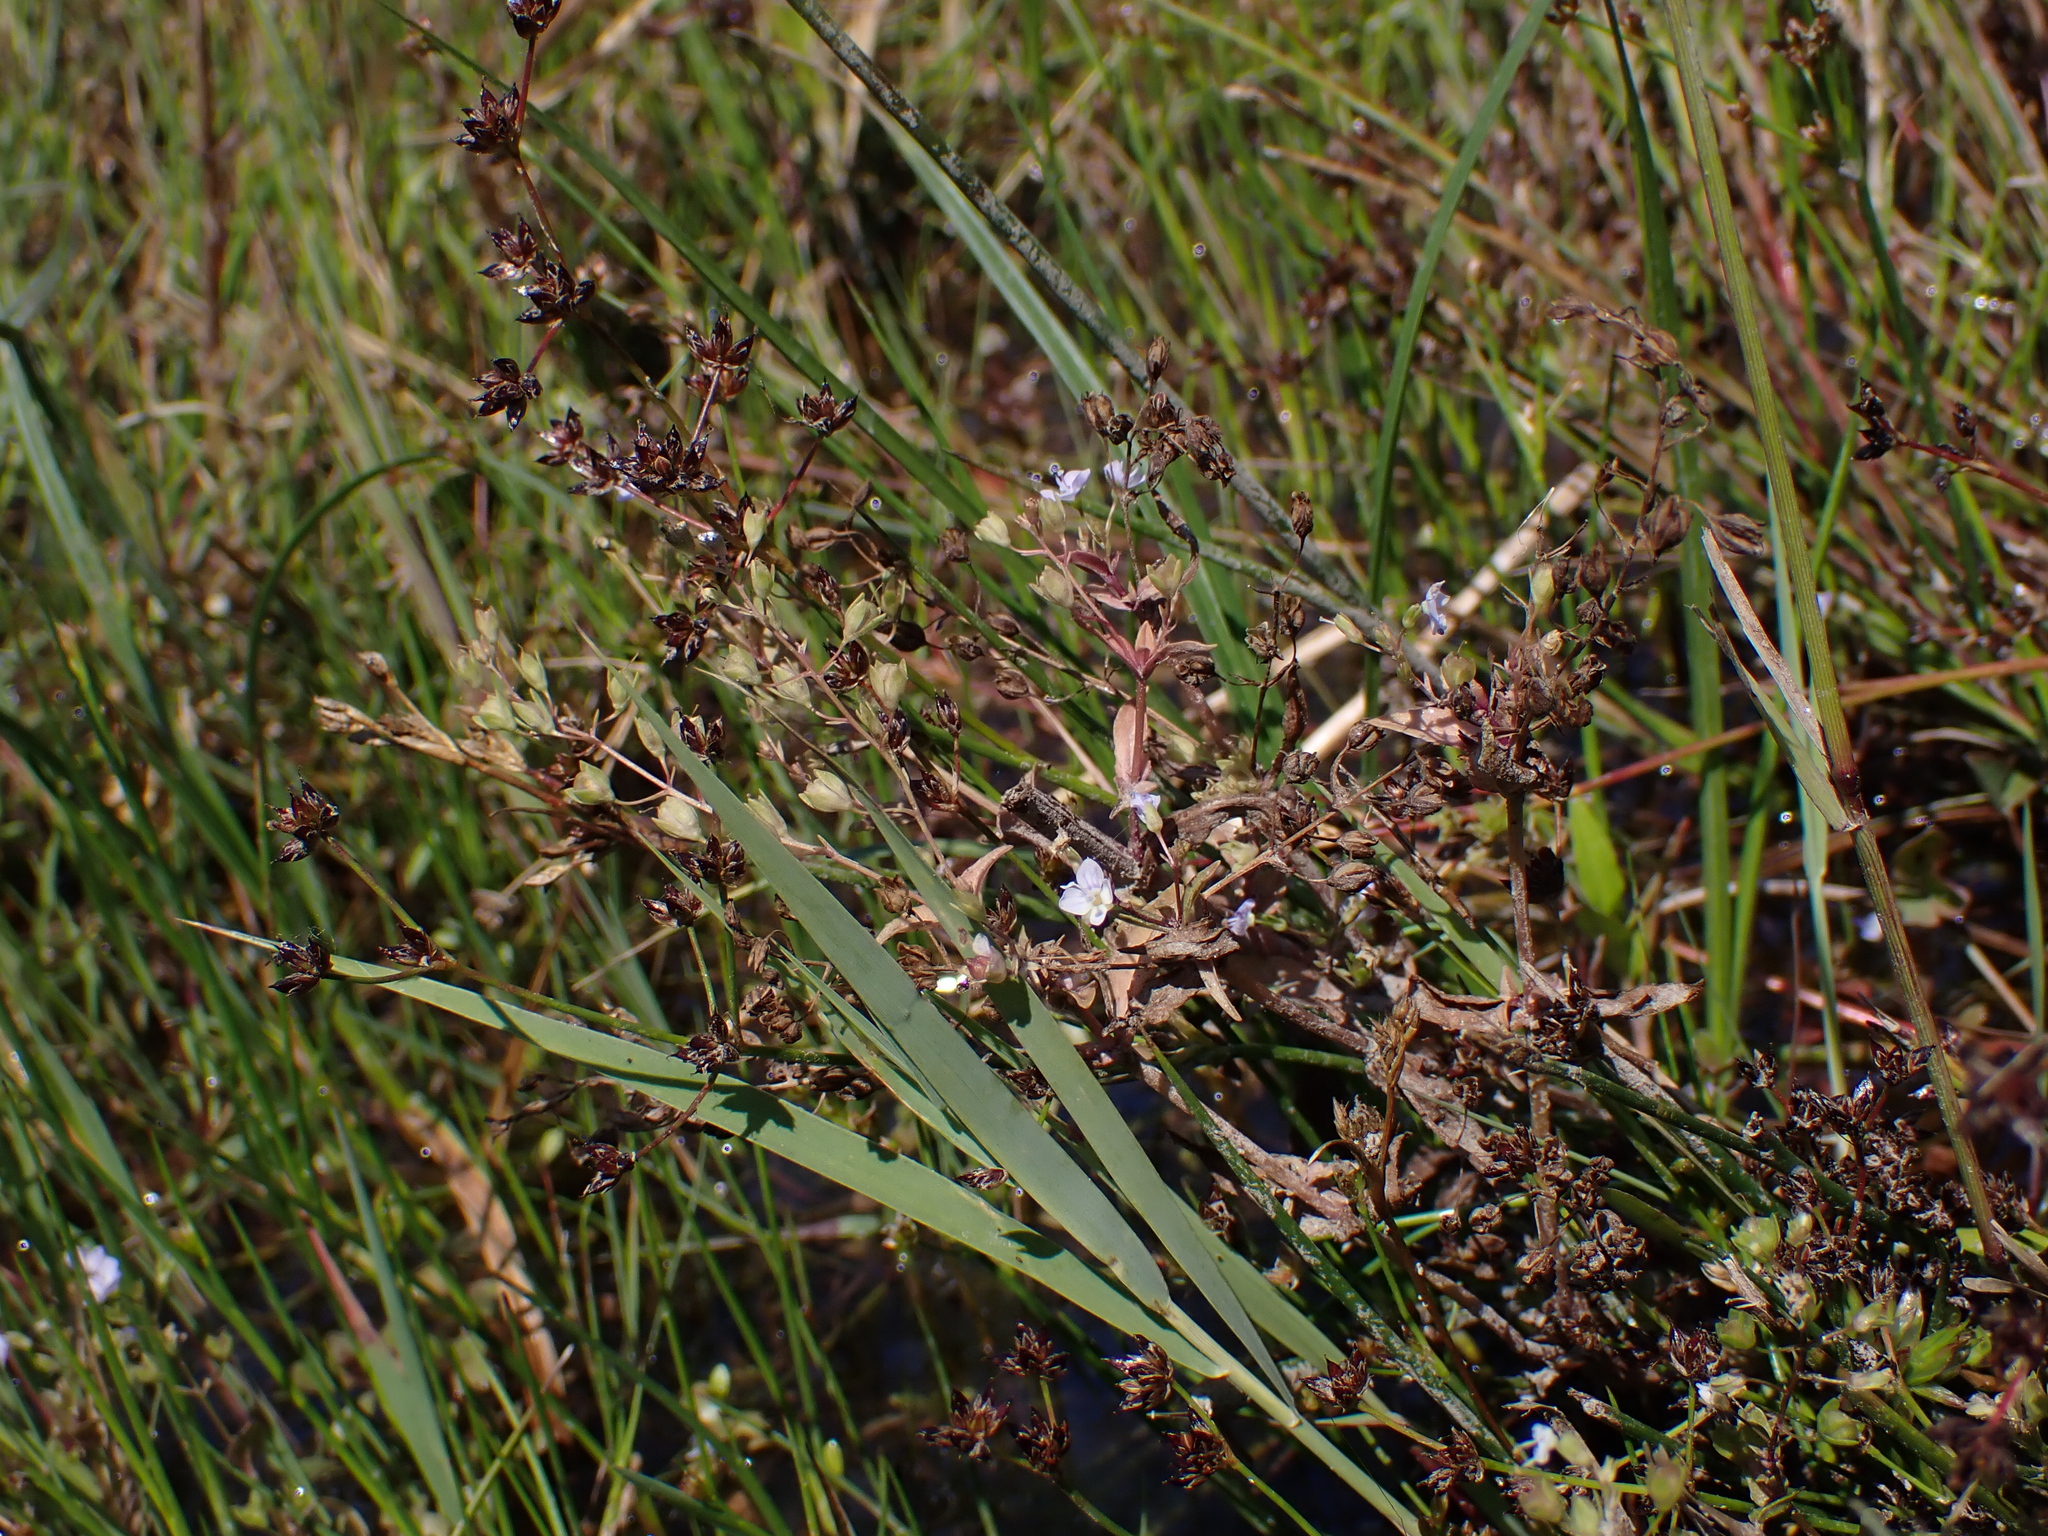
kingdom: Plantae
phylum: Tracheophyta
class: Magnoliopsida
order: Lamiales
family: Plantaginaceae
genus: Veronica
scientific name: Veronica anagallis-aquatica
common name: Water speedwell
